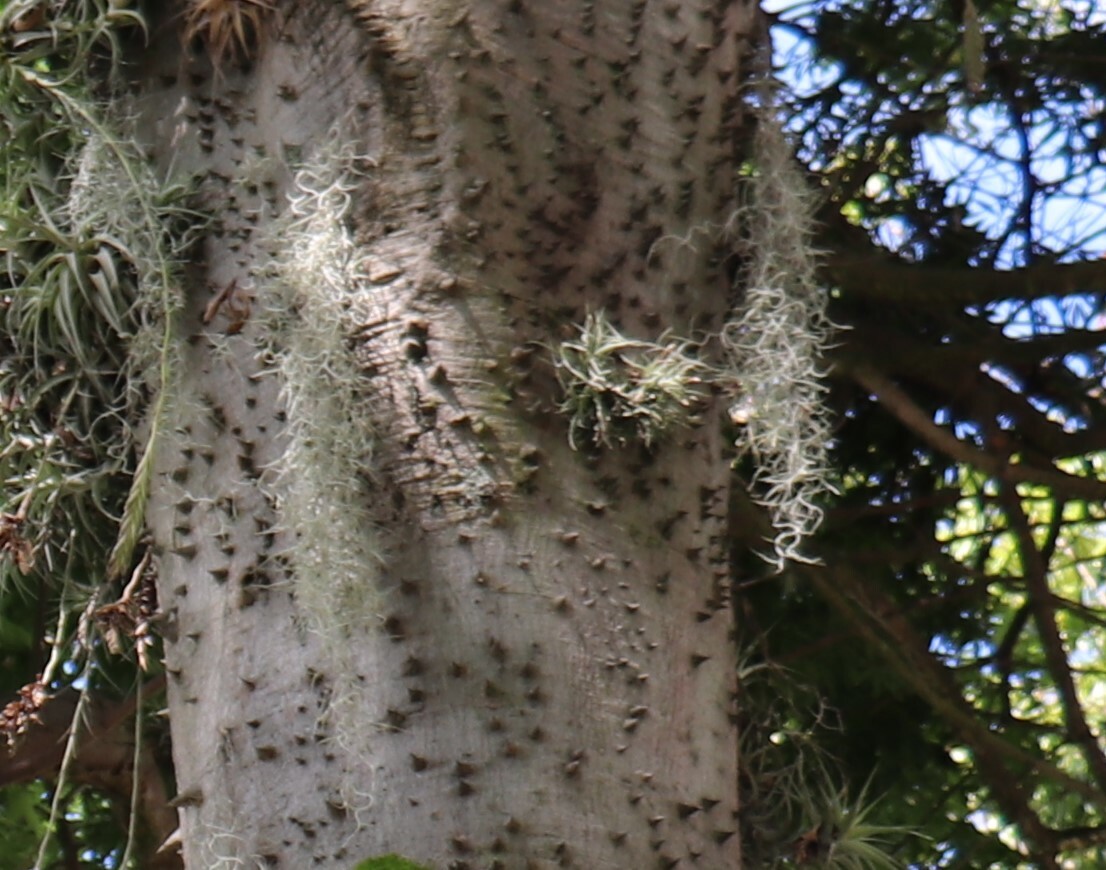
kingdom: Plantae
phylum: Tracheophyta
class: Liliopsida
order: Poales
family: Bromeliaceae
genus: Tillandsia
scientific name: Tillandsia usneoides
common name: Spanish moss
